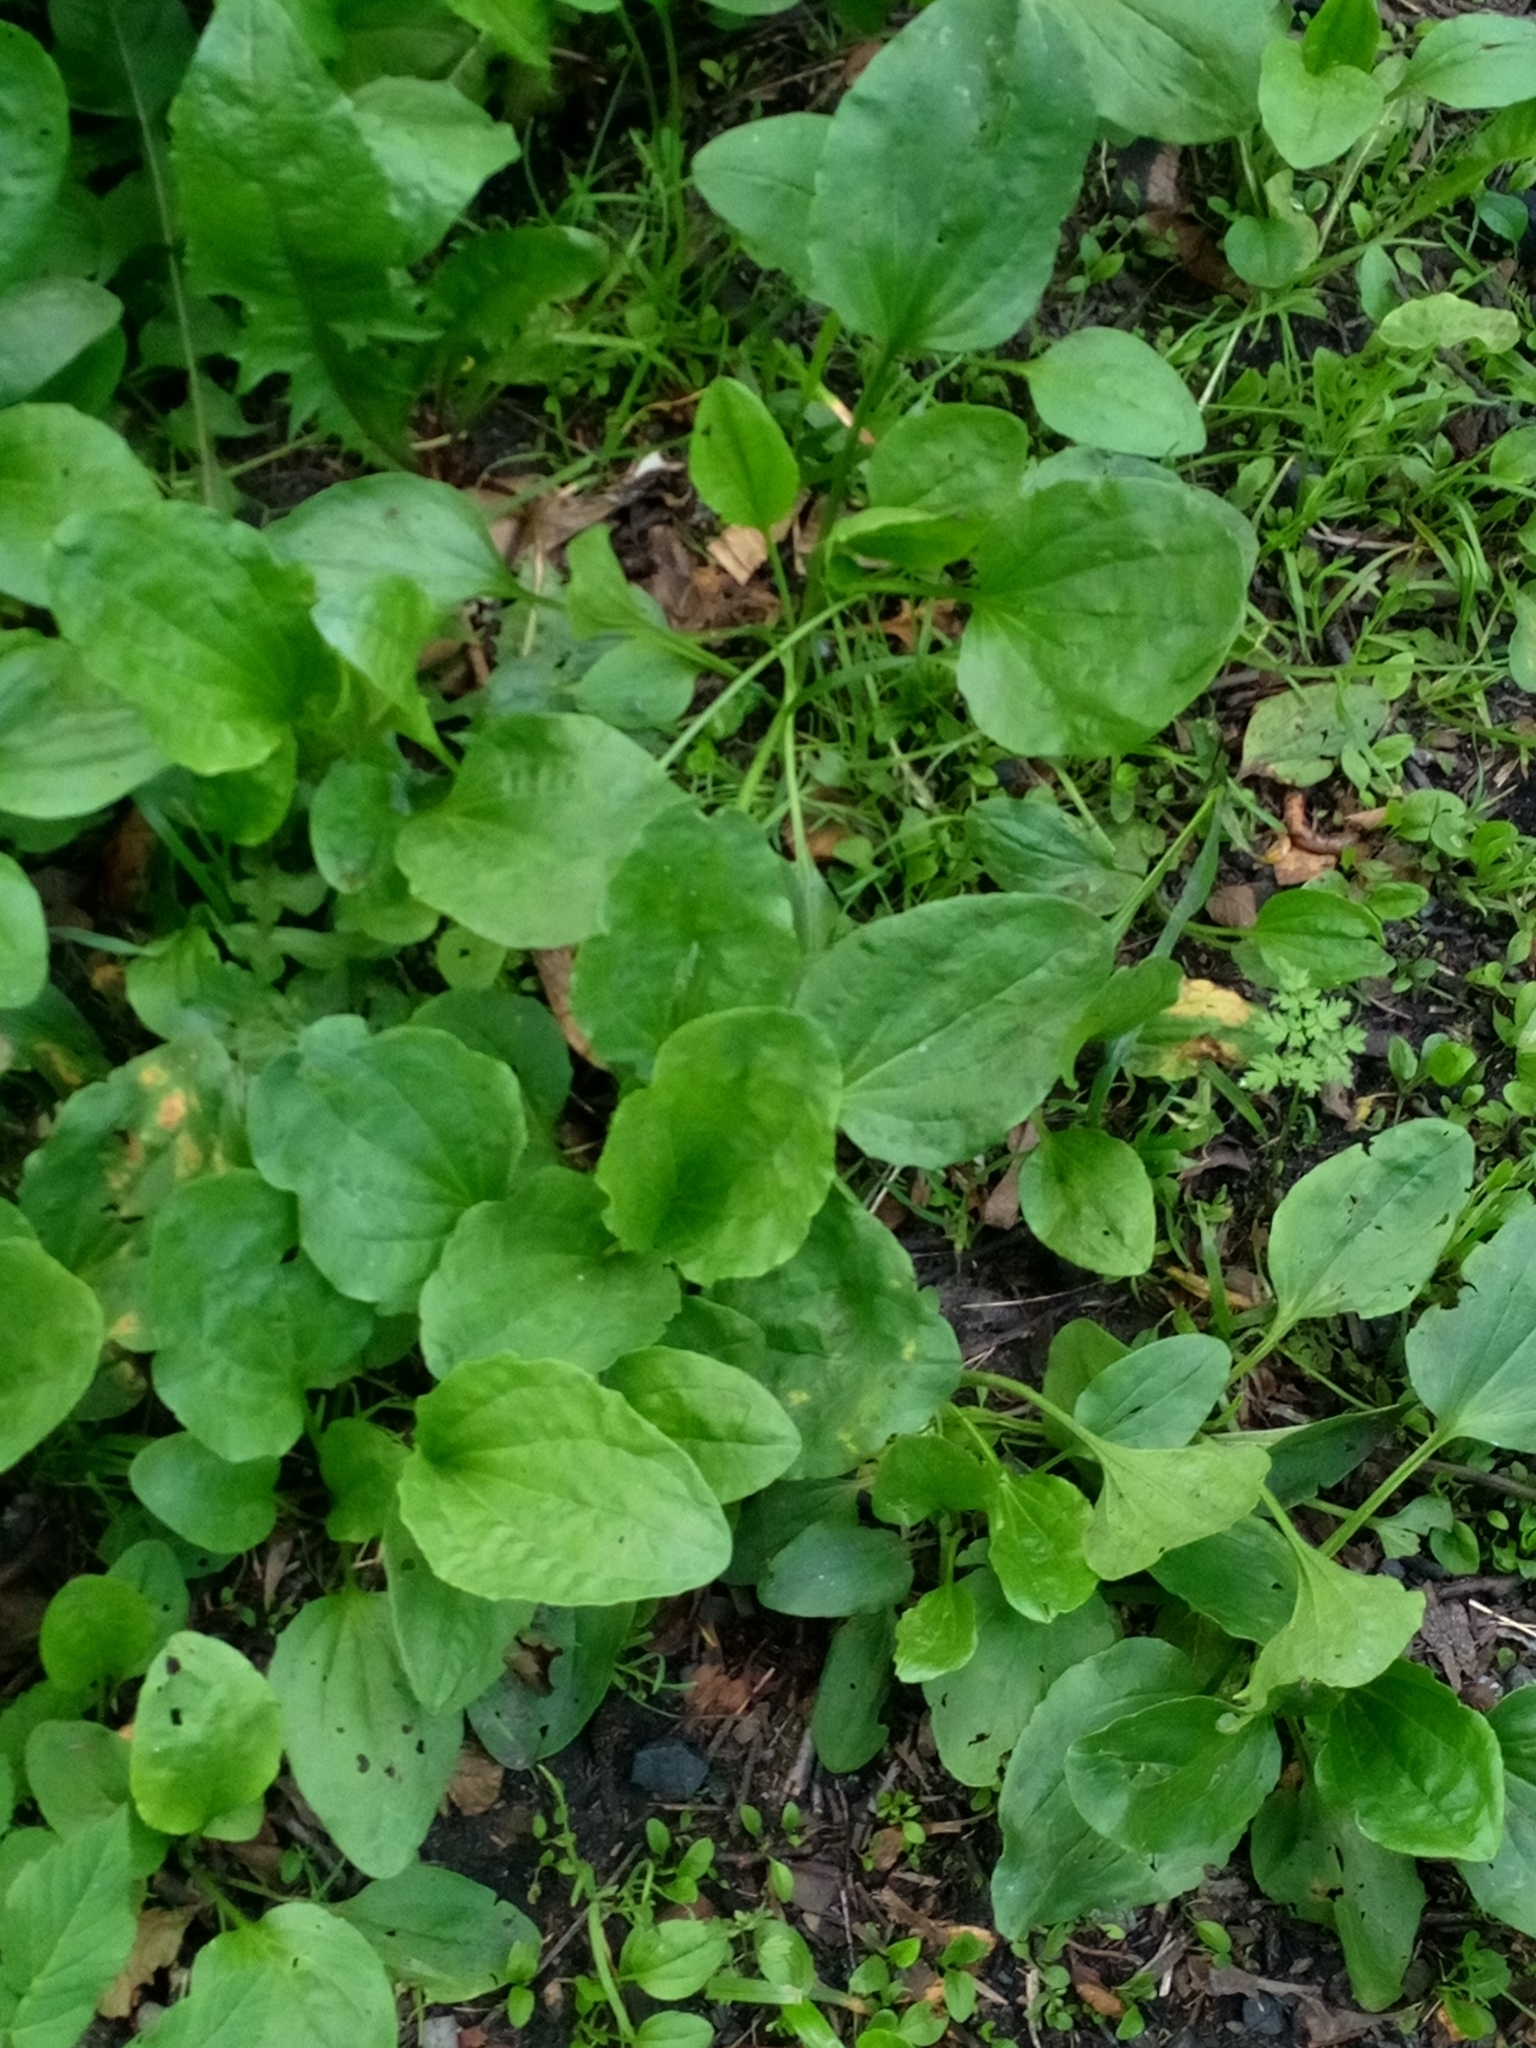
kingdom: Plantae
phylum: Tracheophyta
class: Magnoliopsida
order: Lamiales
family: Plantaginaceae
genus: Plantago
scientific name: Plantago major
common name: Common plantain
